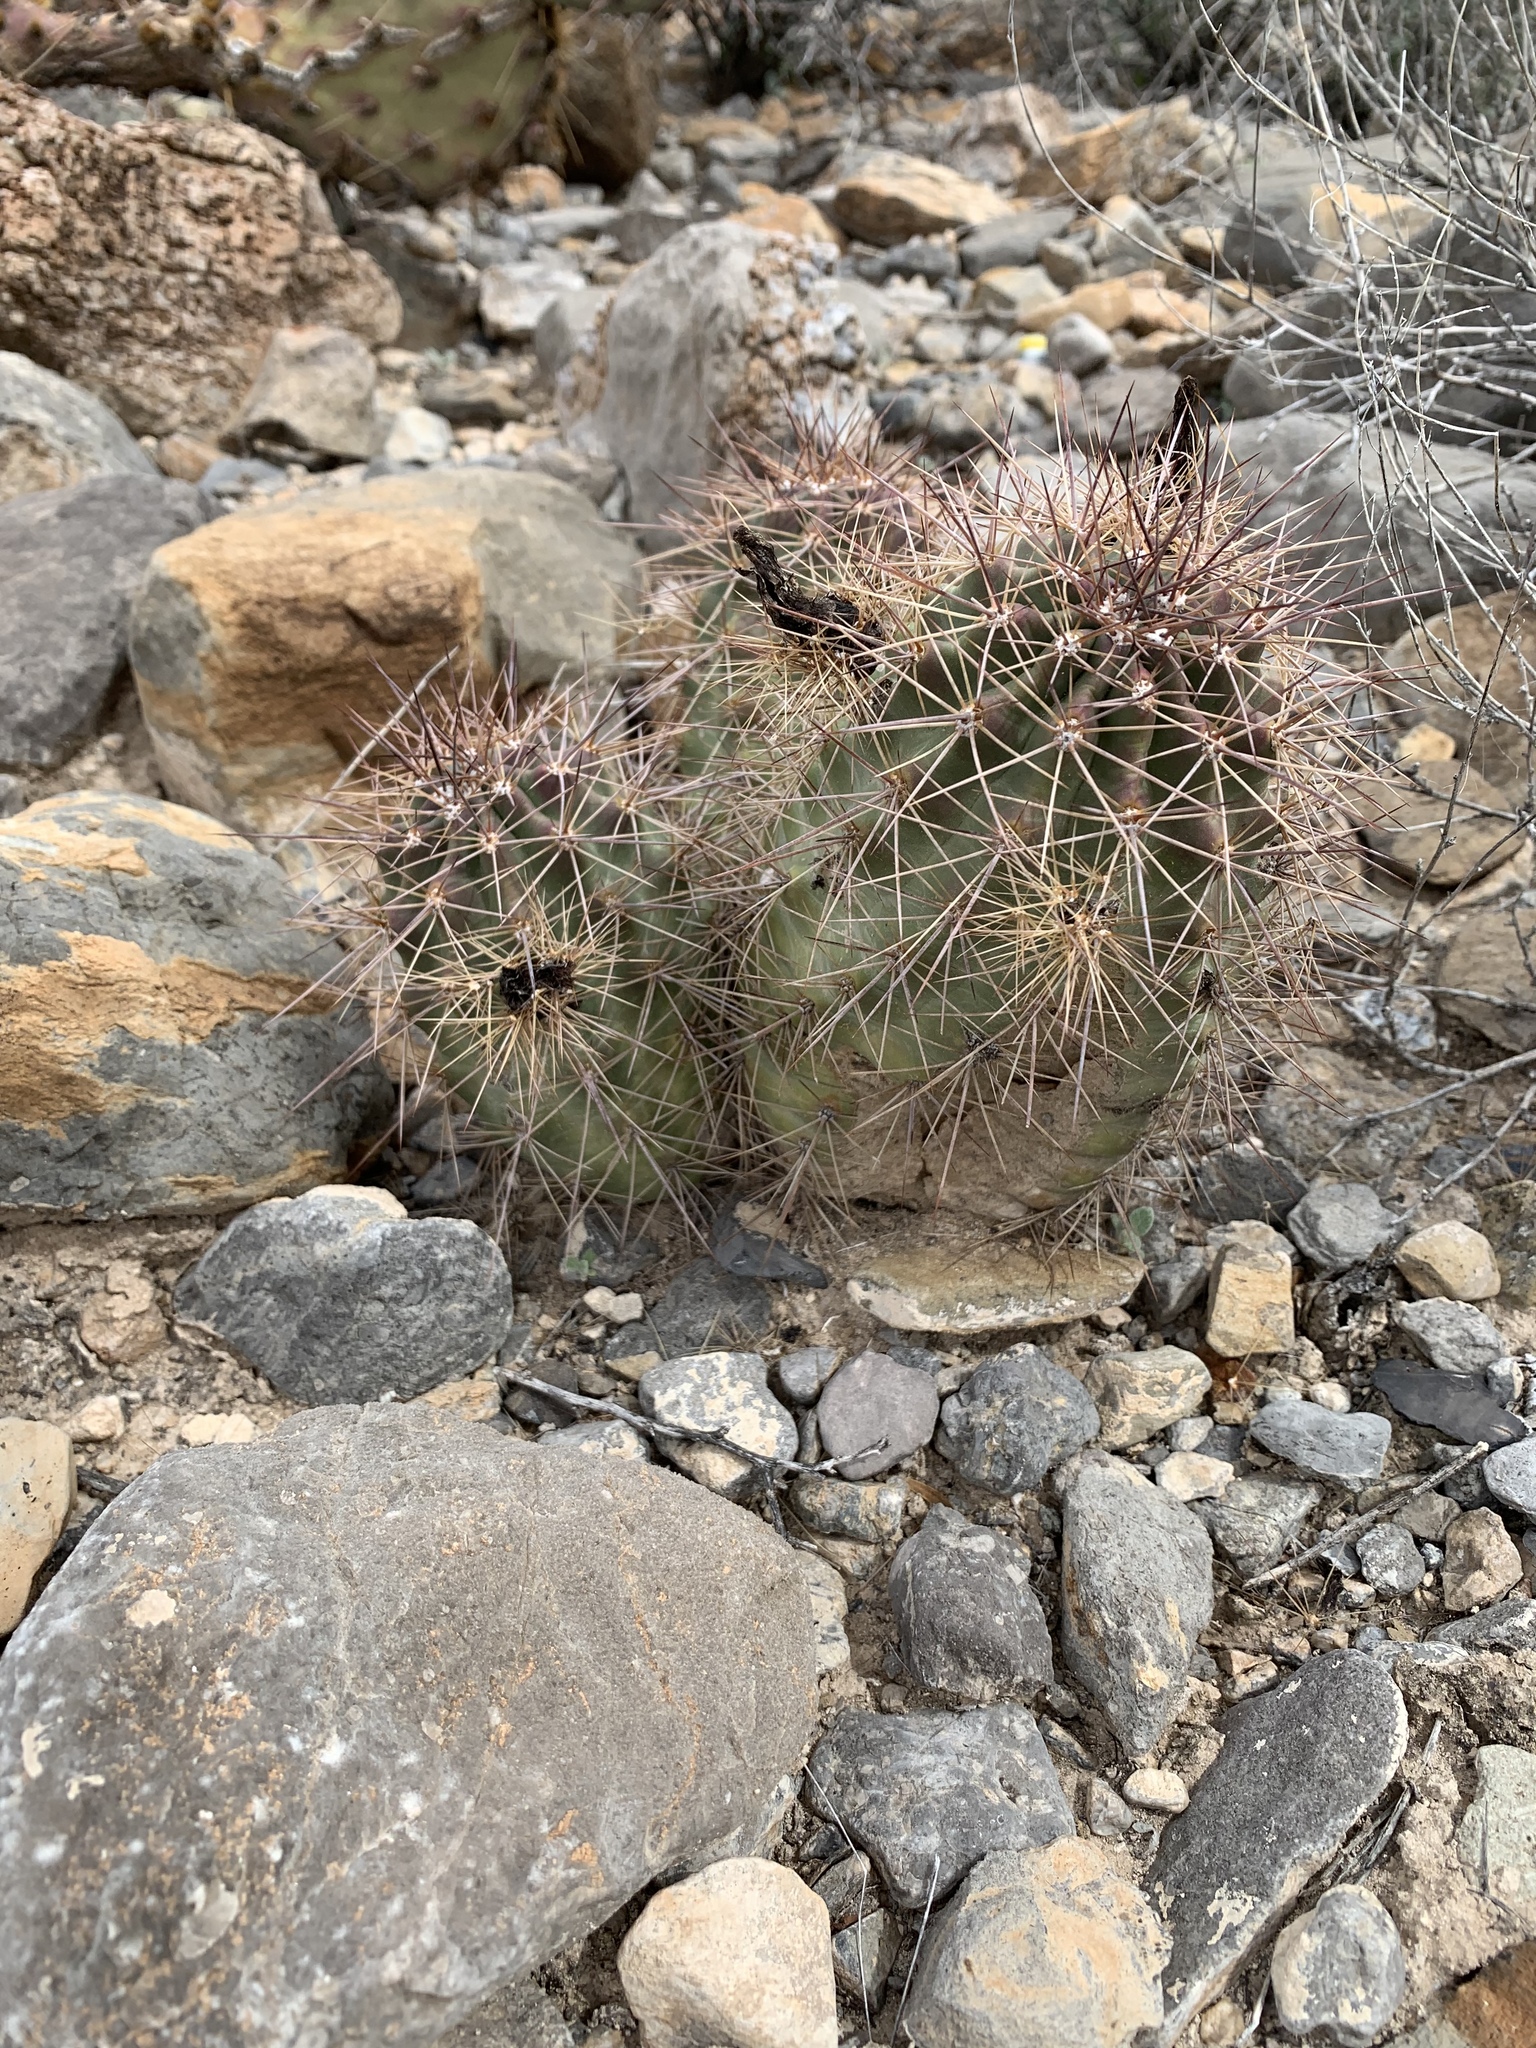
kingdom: Plantae
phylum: Tracheophyta
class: Magnoliopsida
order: Caryophyllales
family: Cactaceae
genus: Echinocereus
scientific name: Echinocereus coccineus
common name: Scarlet hedgehog cactus
